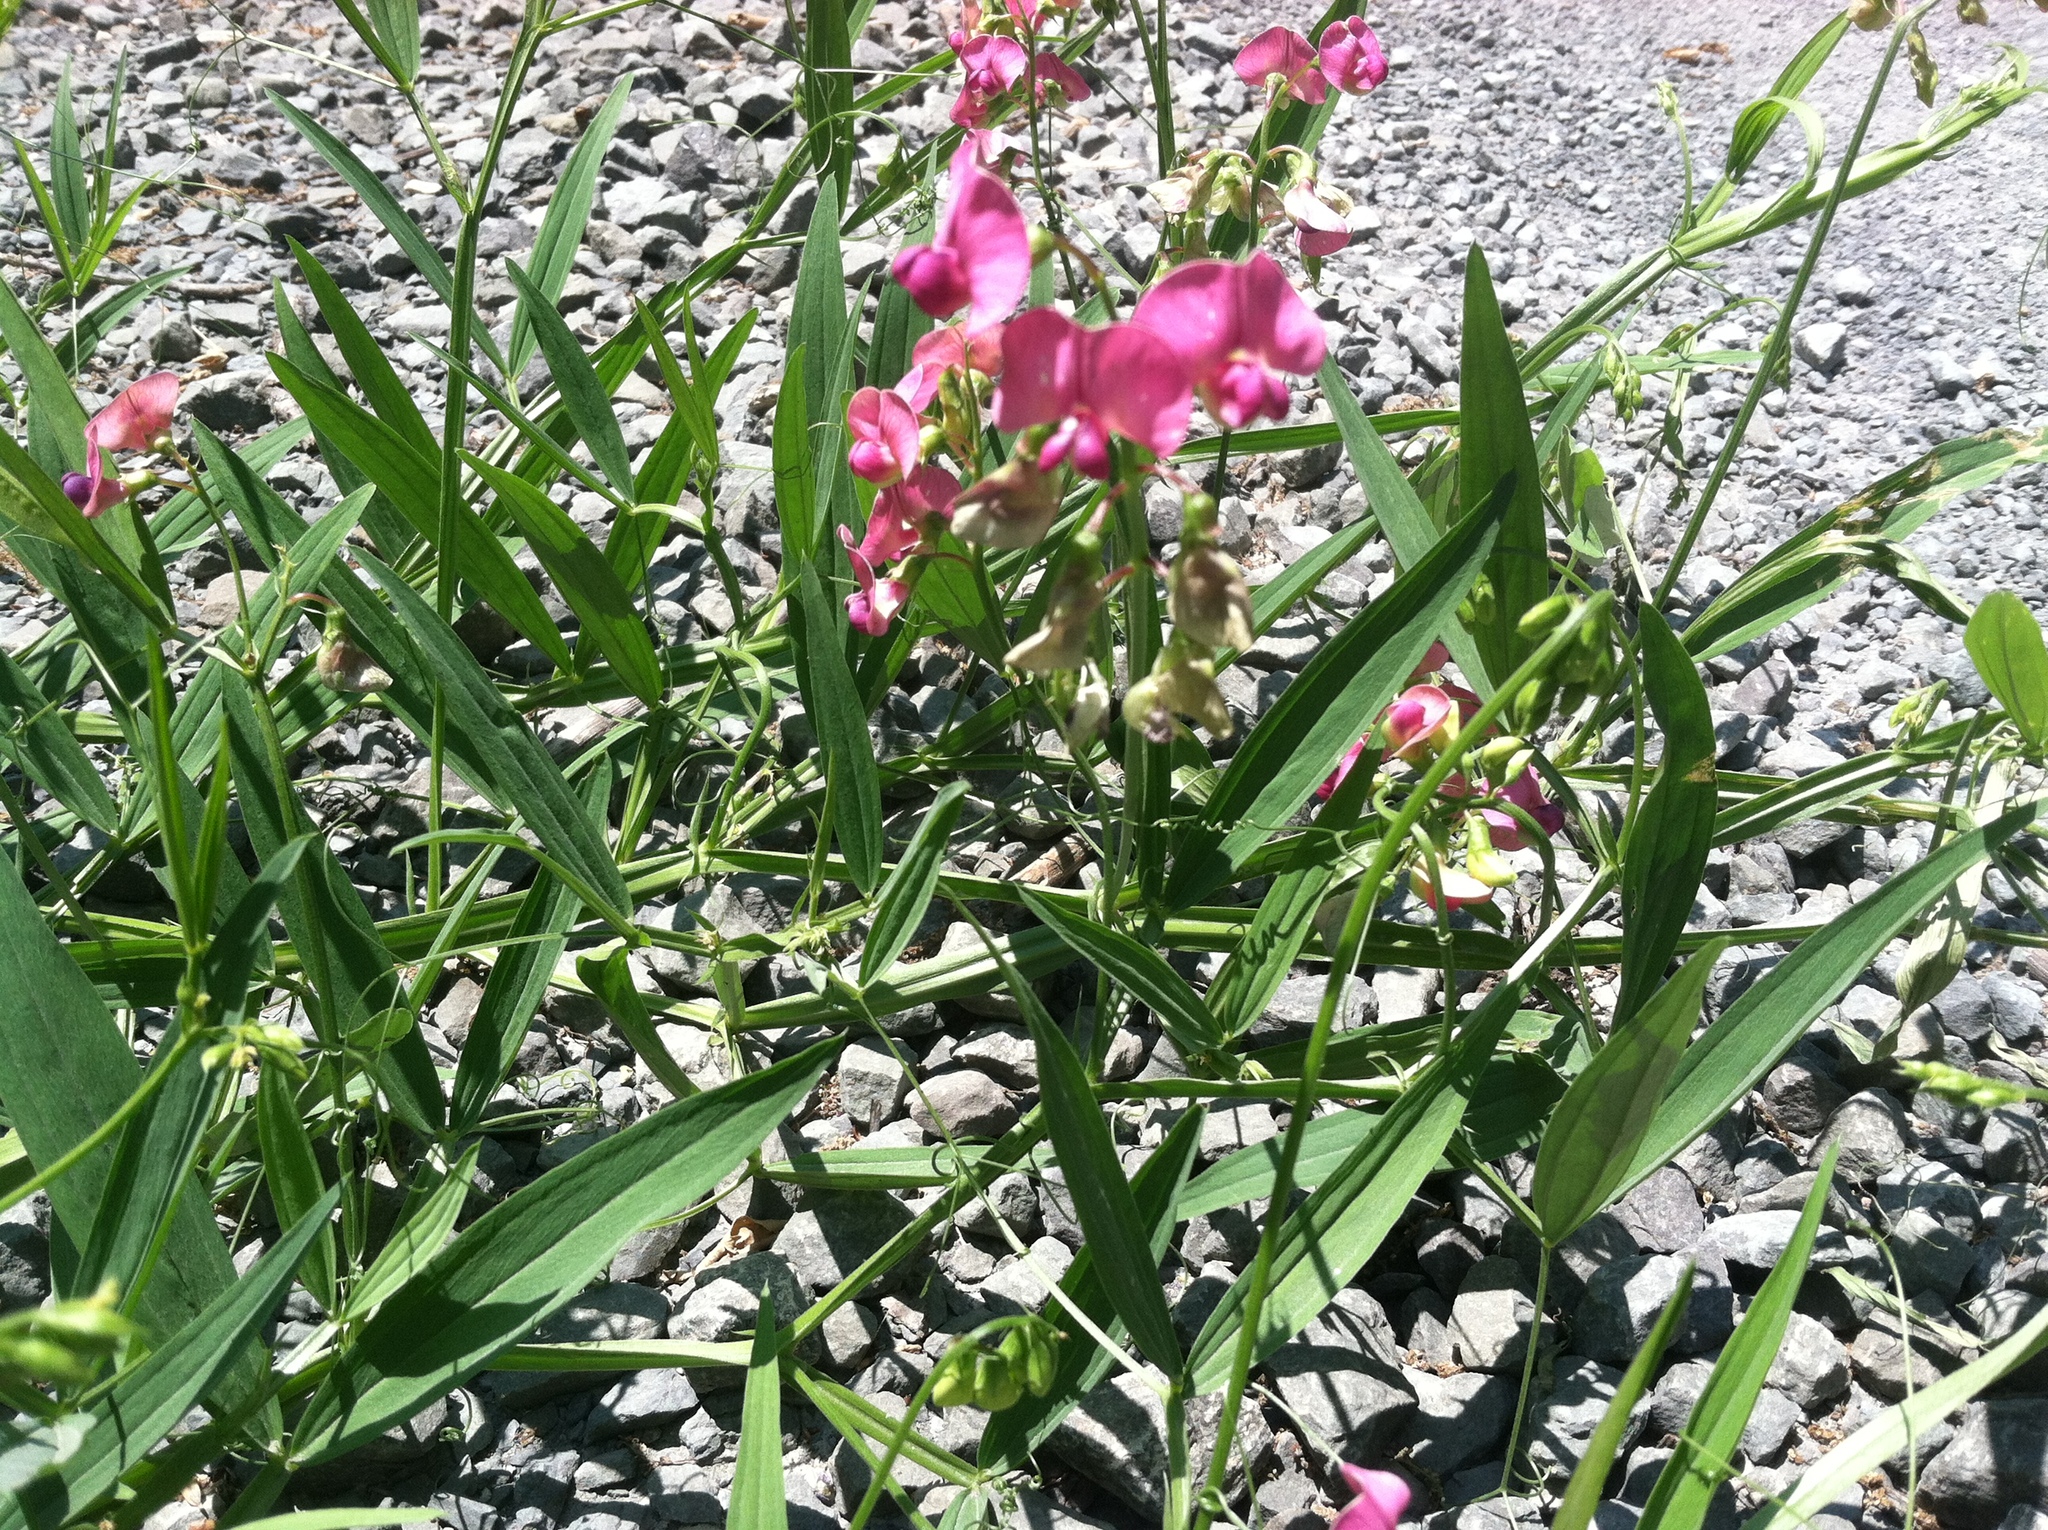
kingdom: Plantae
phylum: Tracheophyta
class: Magnoliopsida
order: Fabales
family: Fabaceae
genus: Lathyrus
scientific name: Lathyrus sylvestris
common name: Flat pea
